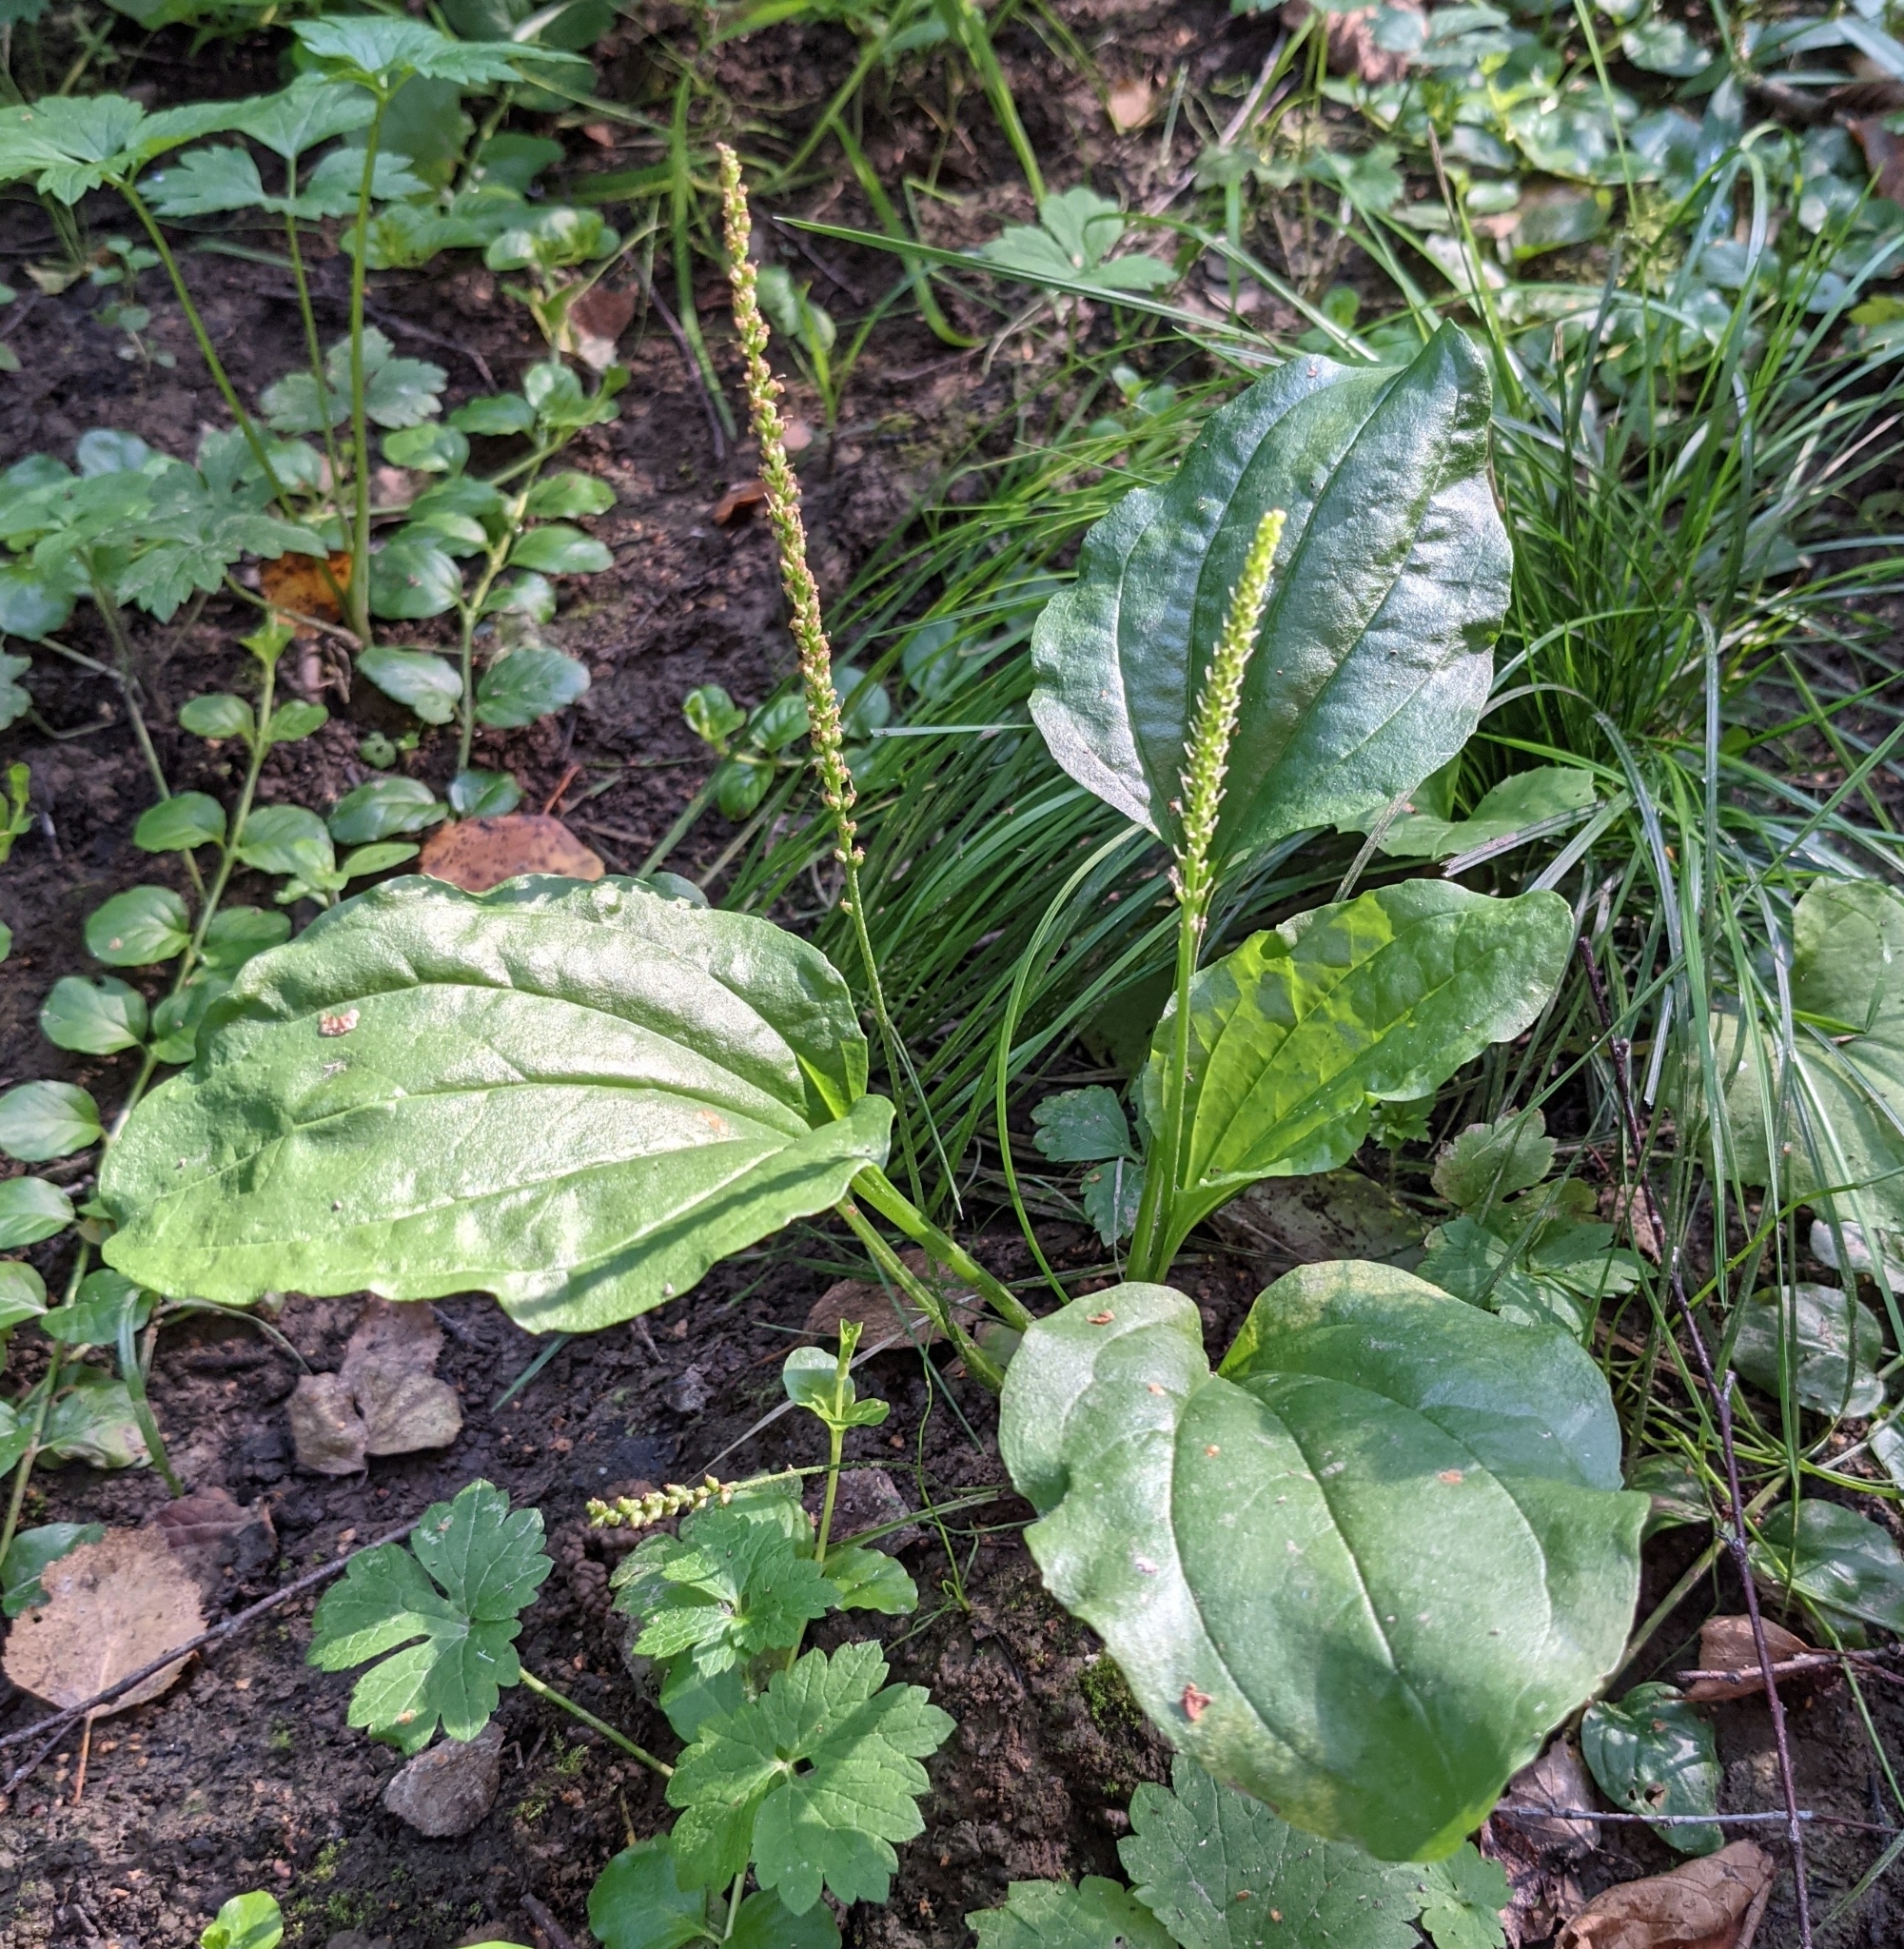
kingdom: Plantae
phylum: Tracheophyta
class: Magnoliopsida
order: Lamiales
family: Plantaginaceae
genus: Plantago
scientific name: Plantago major
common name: Common plantain
